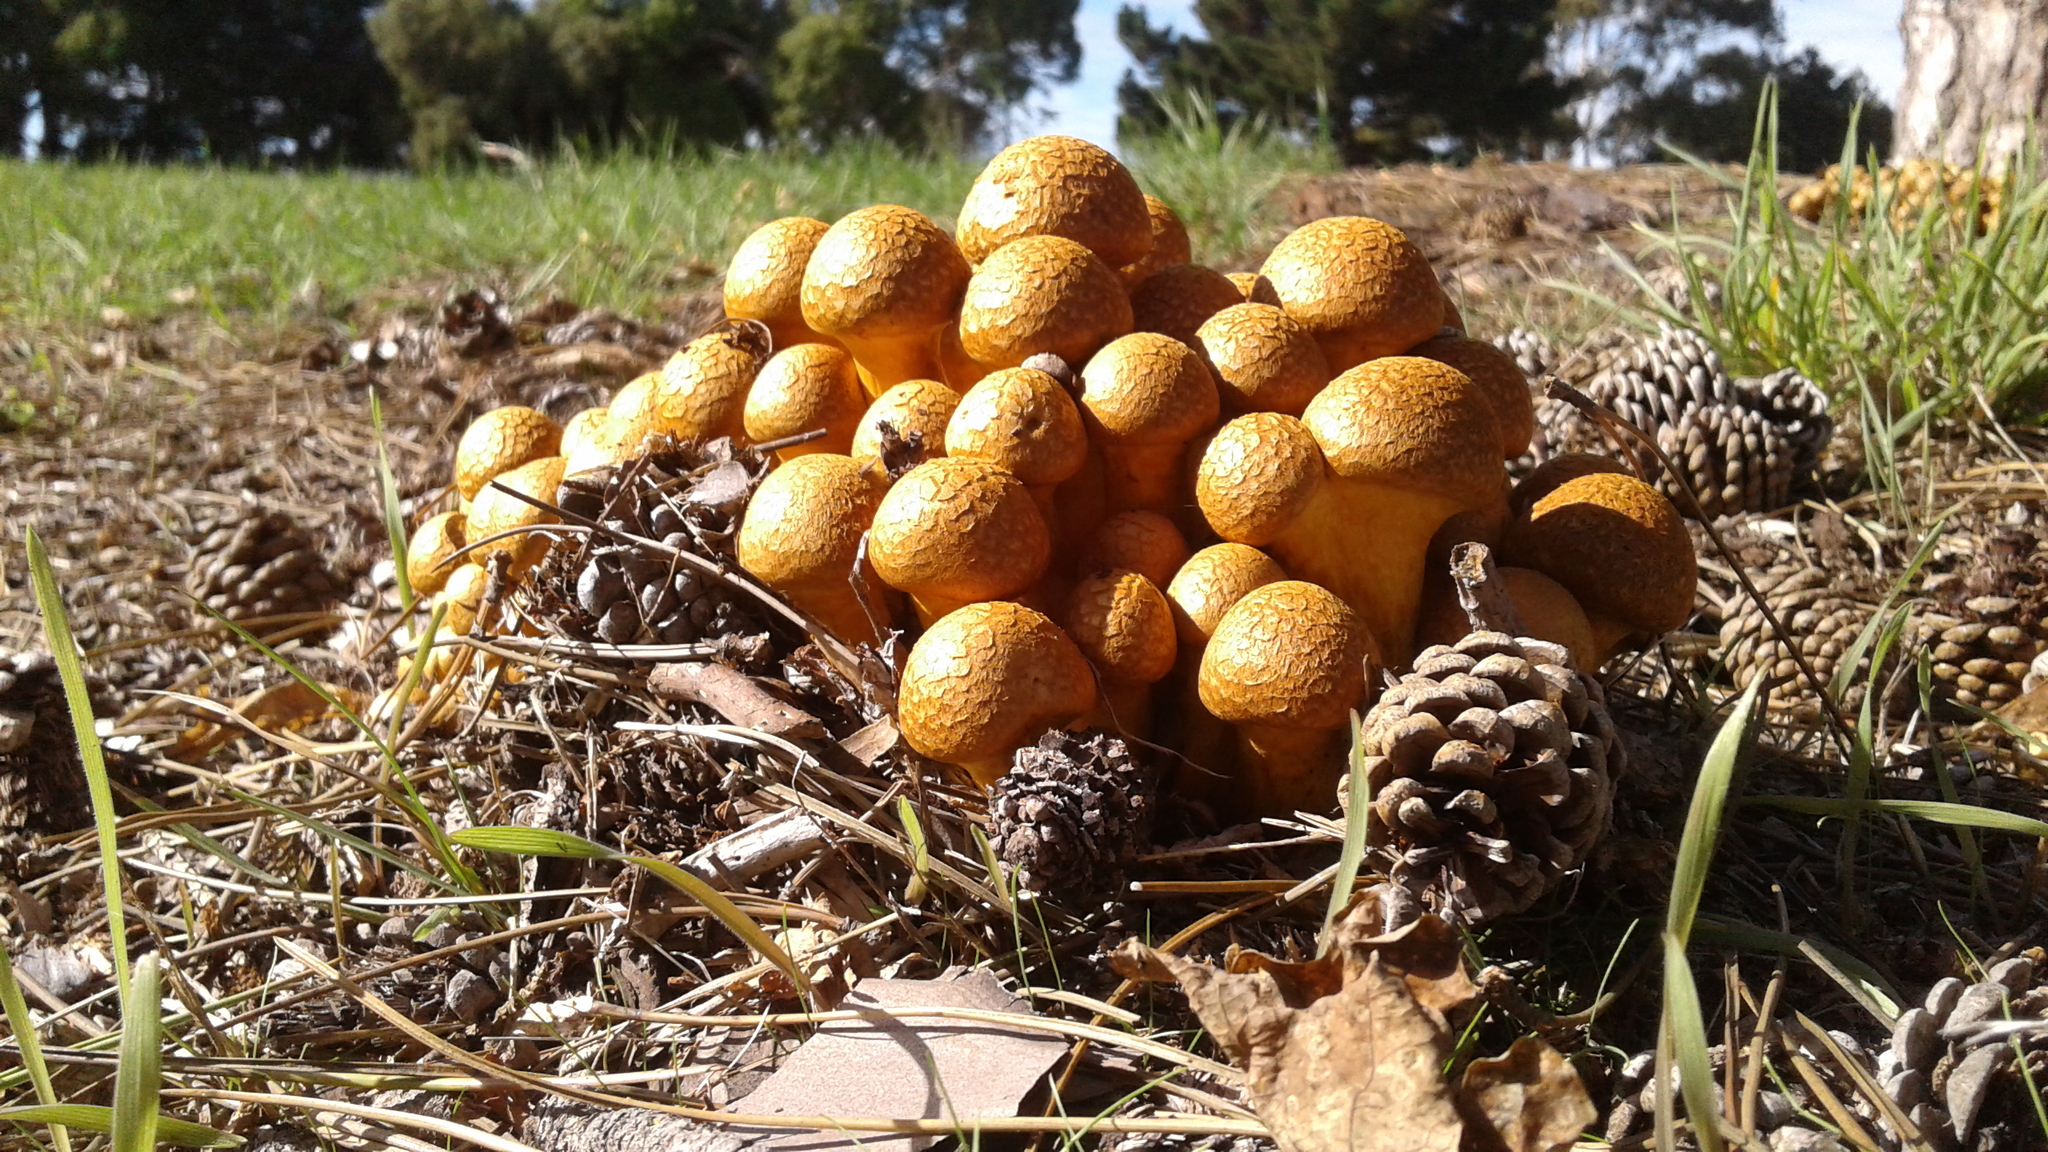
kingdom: Fungi
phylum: Basidiomycota
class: Agaricomycetes
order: Agaricales
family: Hymenogastraceae
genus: Gymnopilus
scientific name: Gymnopilus junonius
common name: Spectacular rustgill
